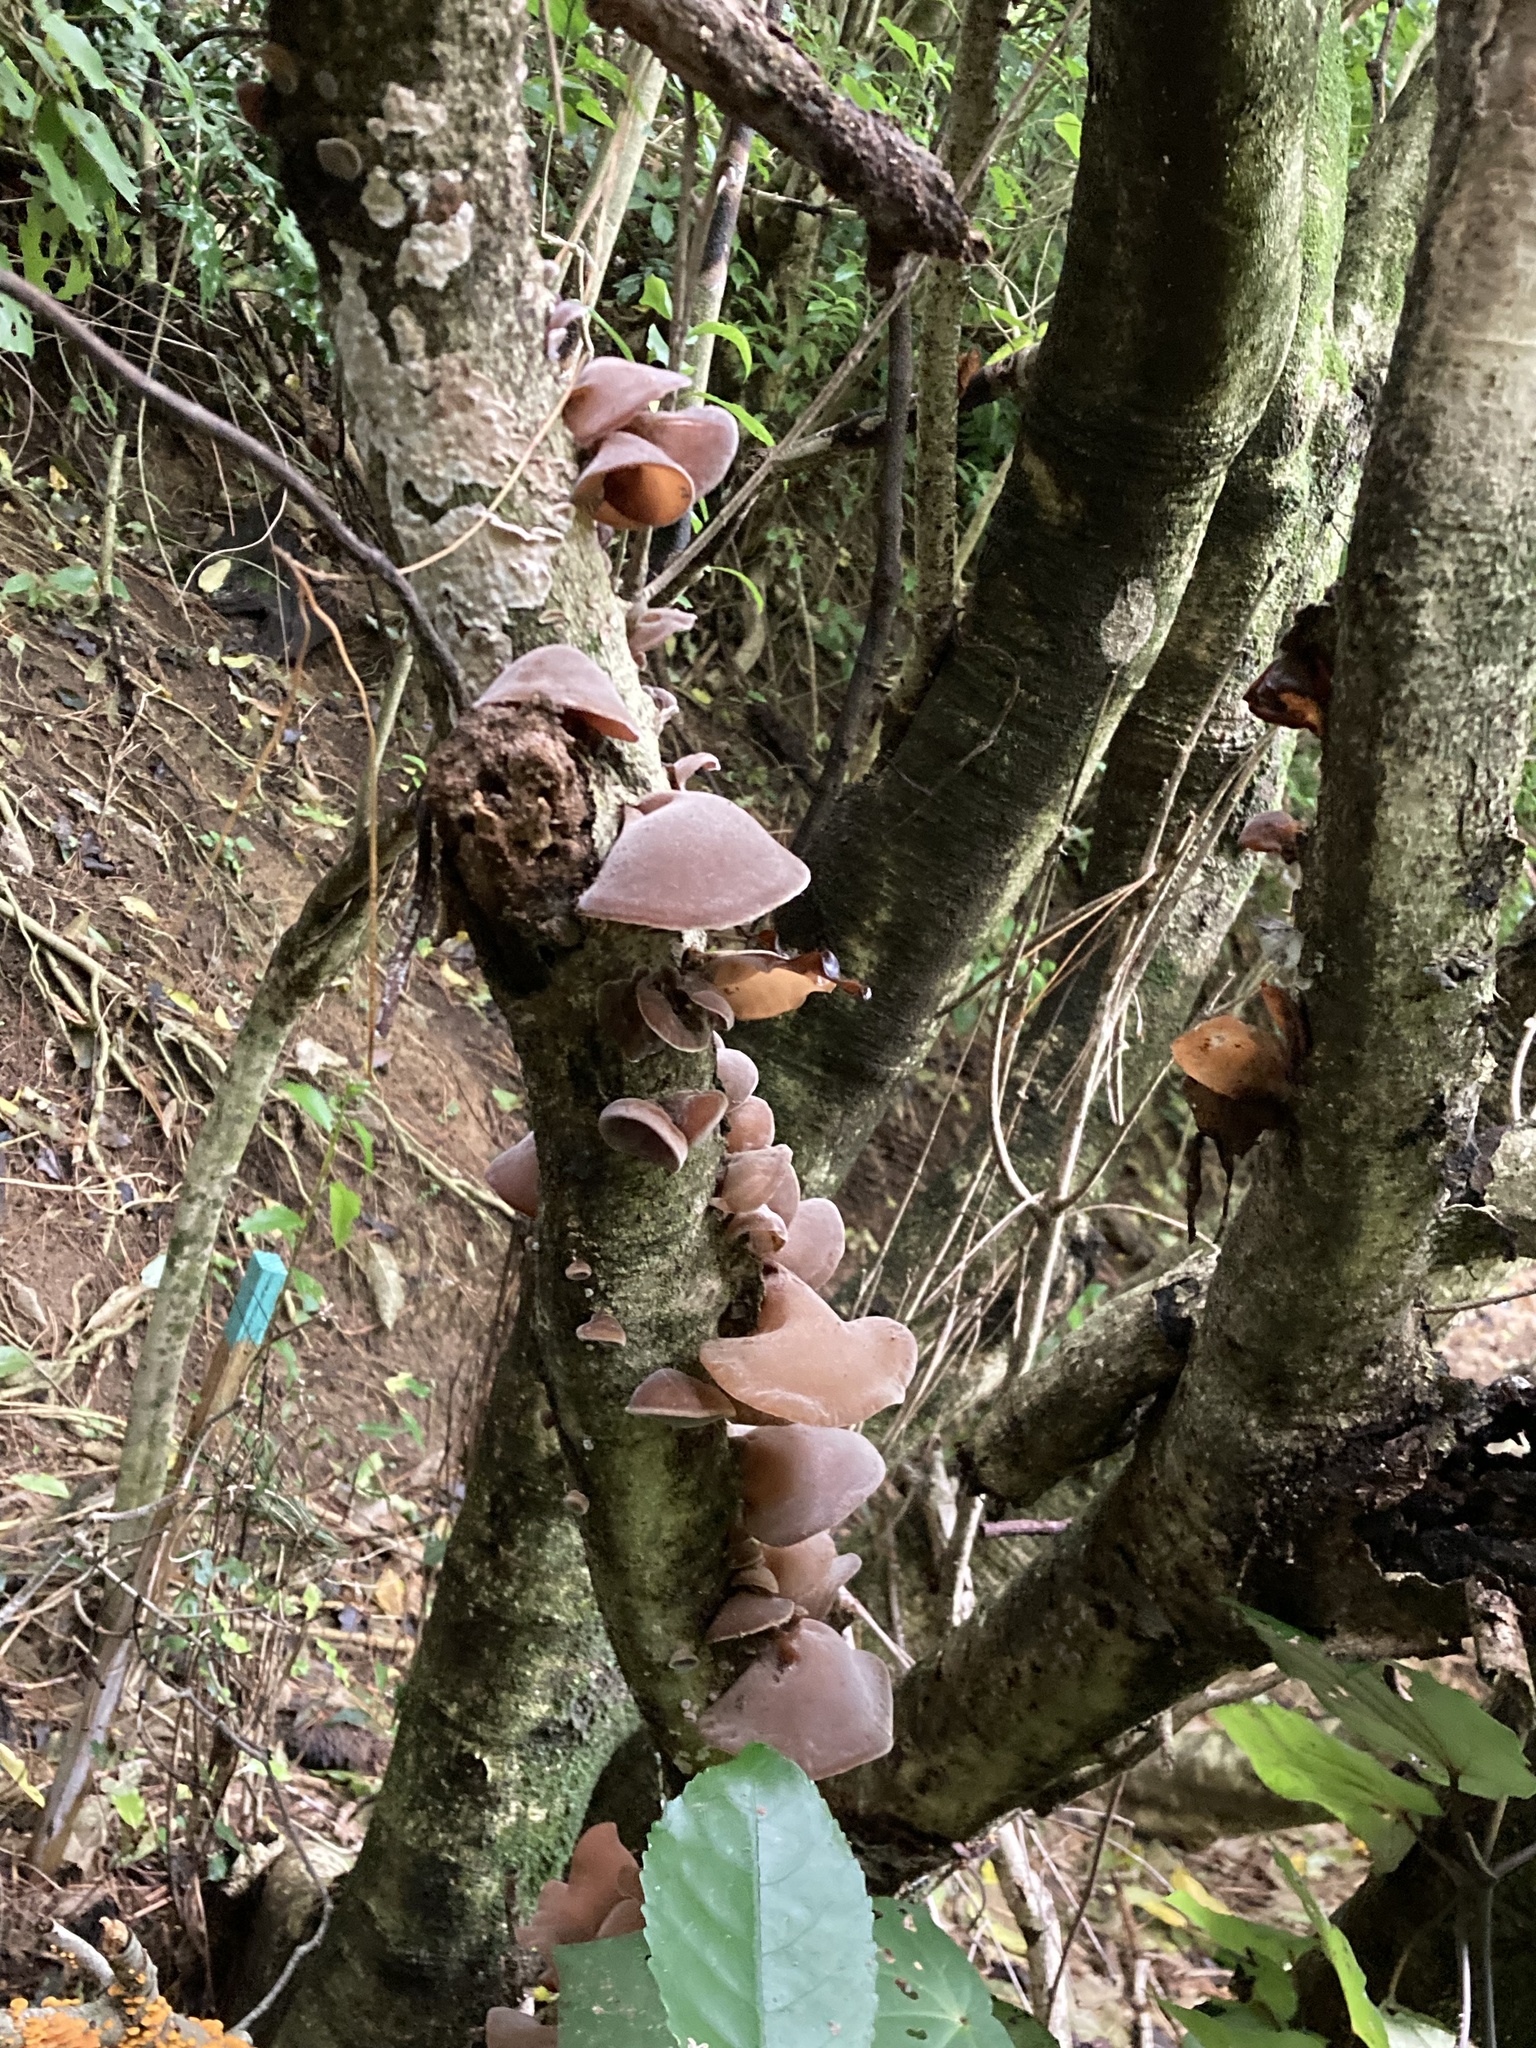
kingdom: Fungi
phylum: Basidiomycota
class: Agaricomycetes
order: Auriculariales
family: Auriculariaceae
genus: Auricularia
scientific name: Auricularia cornea
